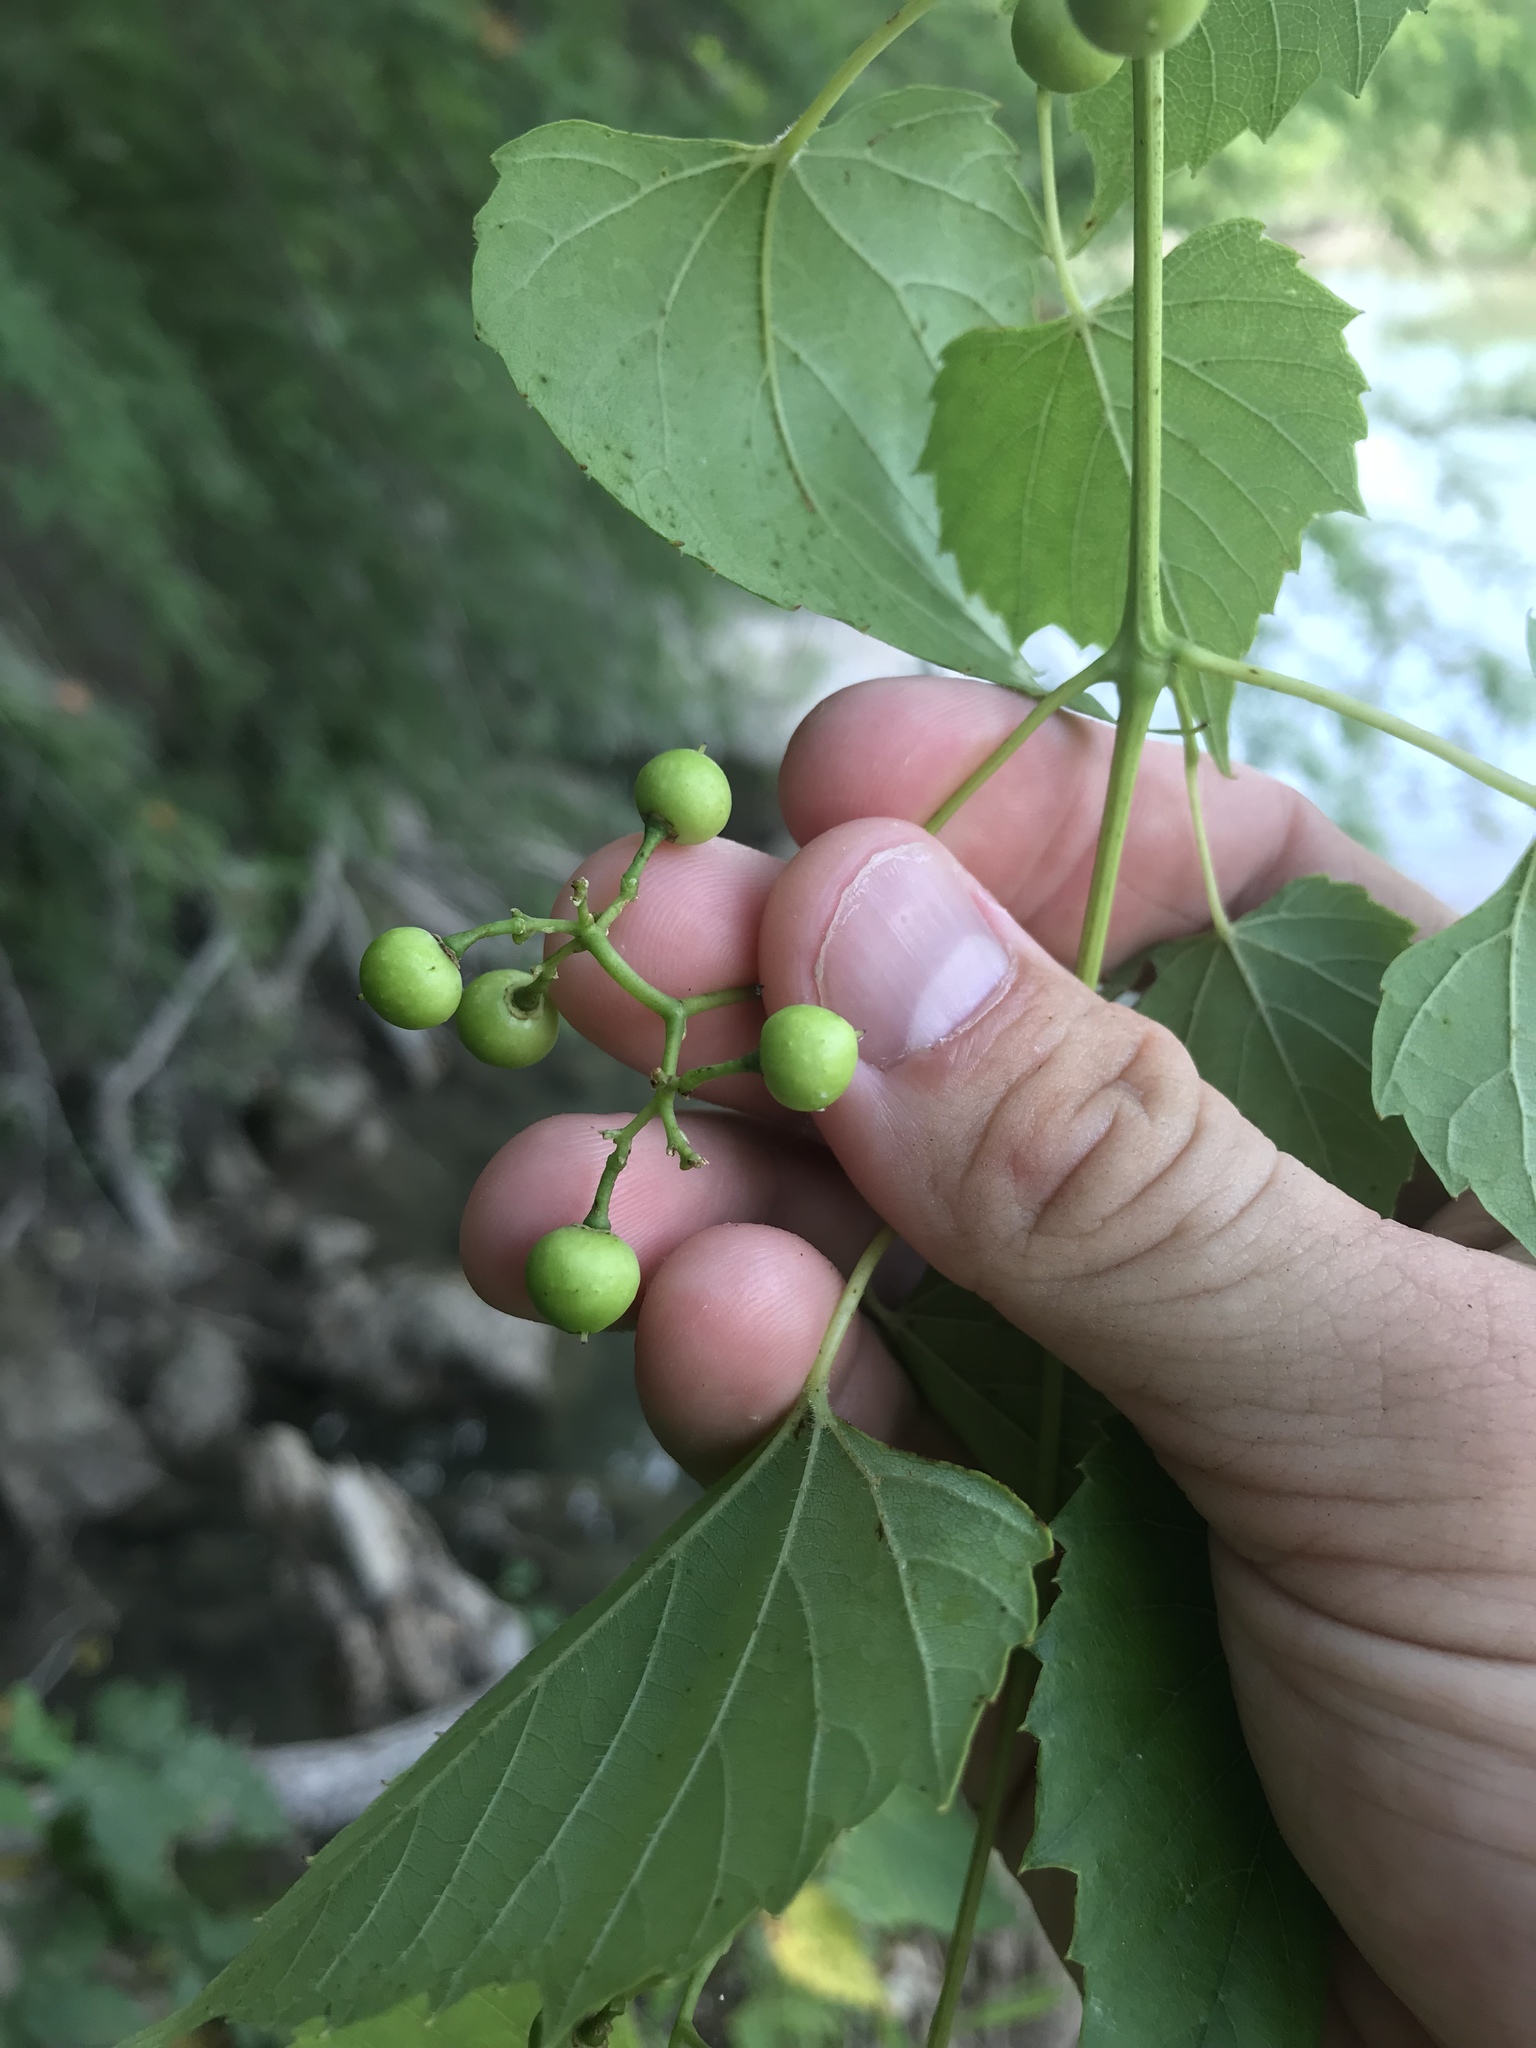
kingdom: Plantae
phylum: Tracheophyta
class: Magnoliopsida
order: Vitales
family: Vitaceae
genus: Ampelopsis
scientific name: Ampelopsis cordata
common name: Heart-leaf ampelopsis
